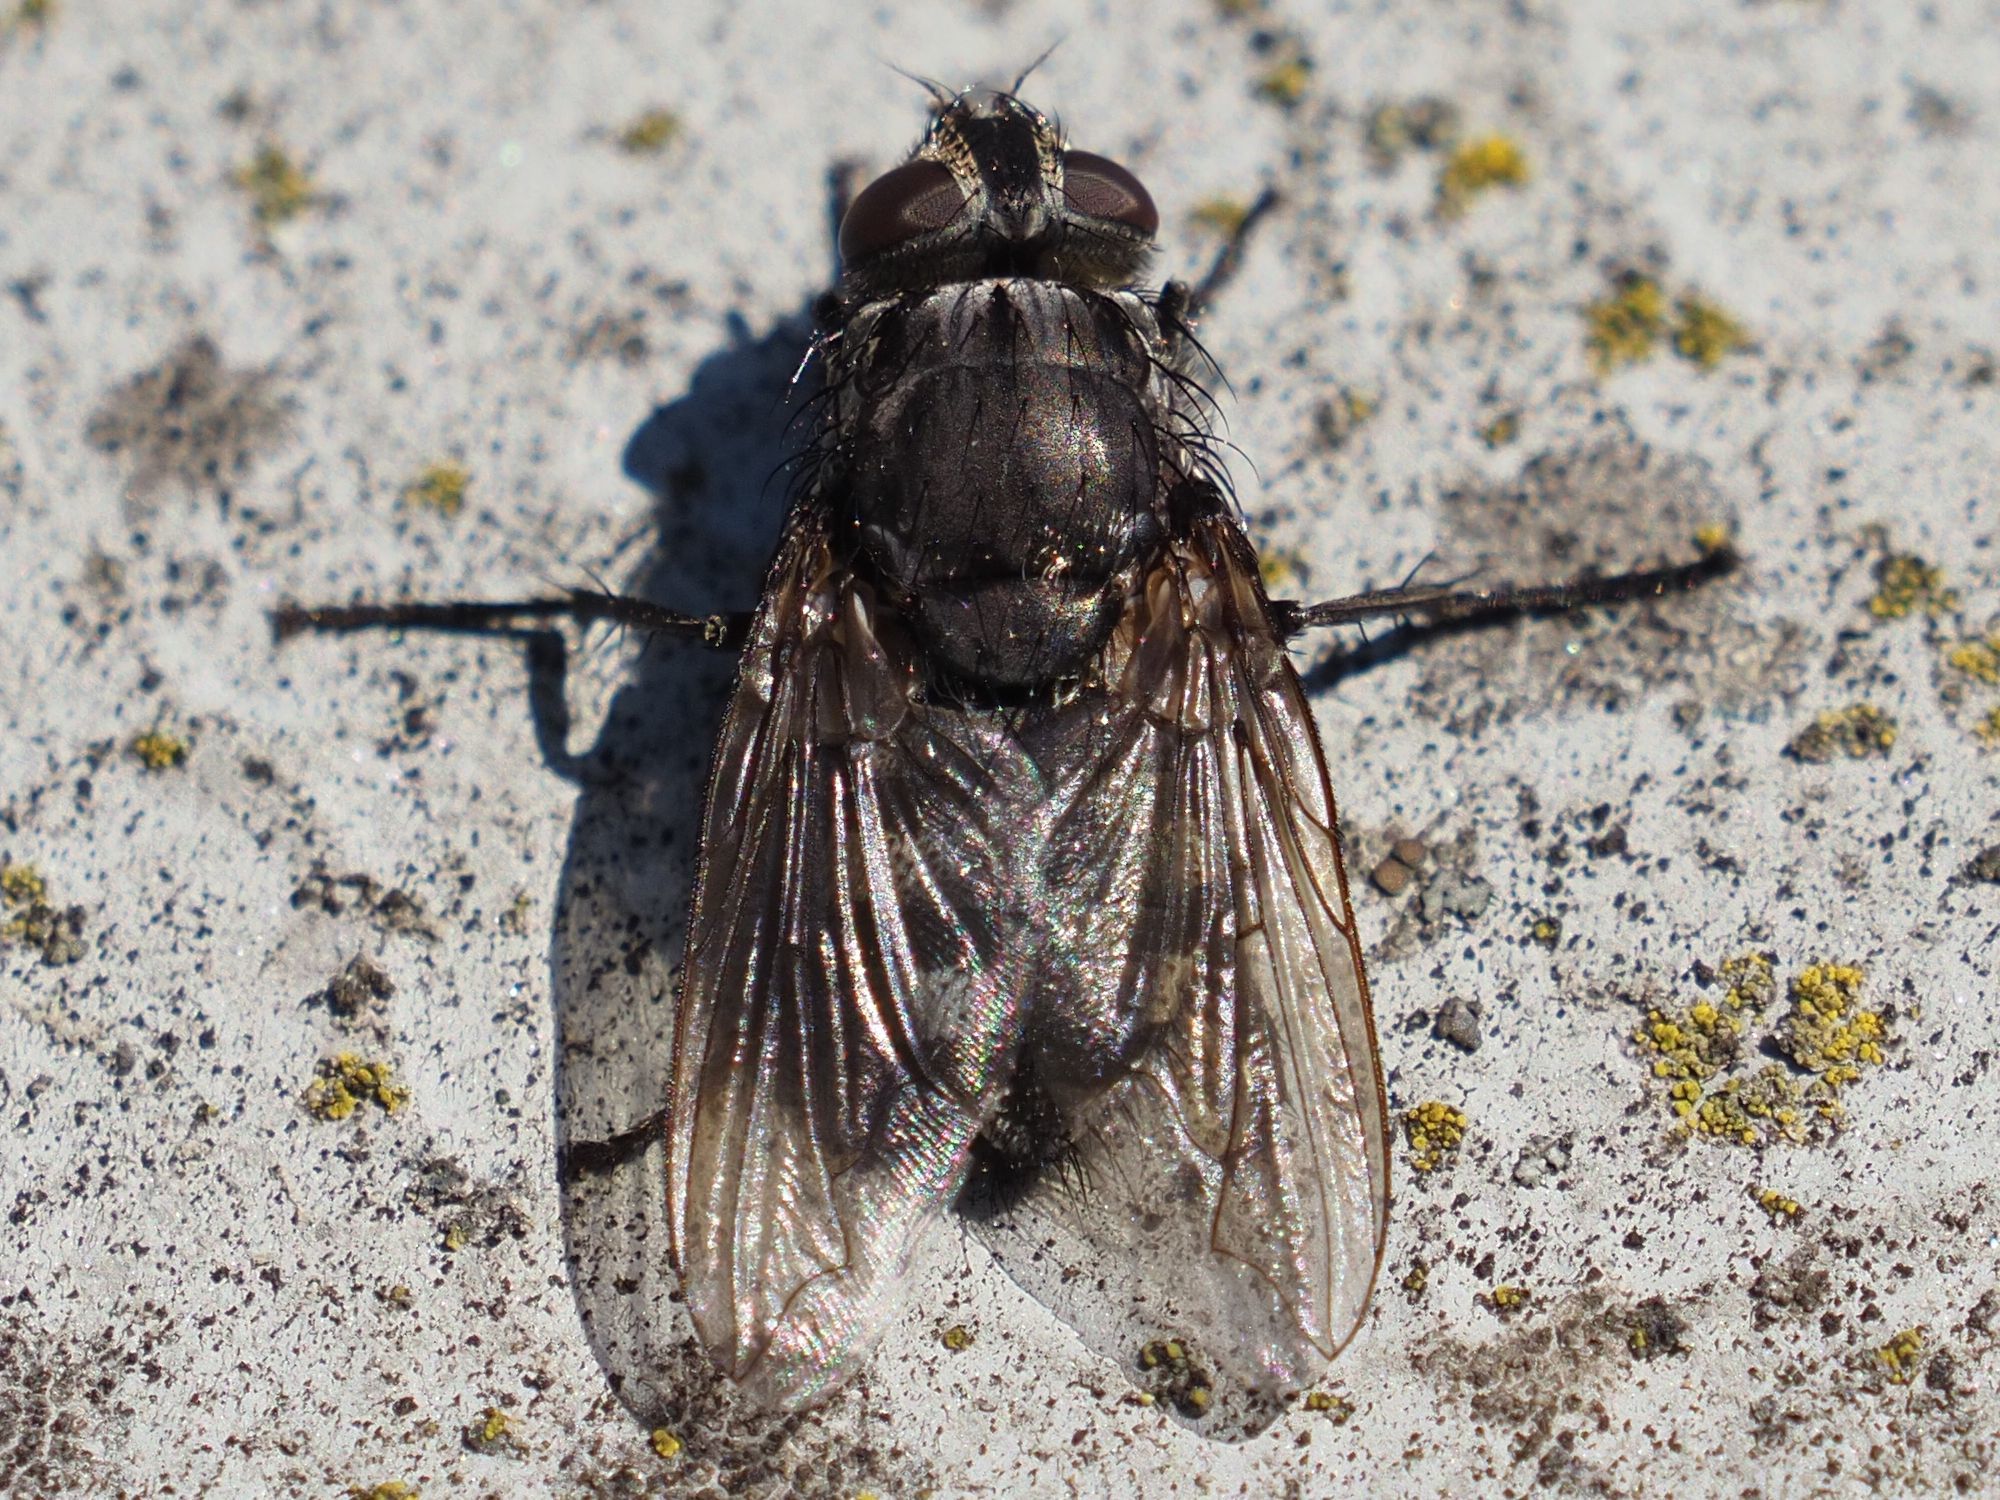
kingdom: Animalia
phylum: Arthropoda
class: Insecta
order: Diptera
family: Polleniidae
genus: Pollenia
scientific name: Pollenia vagabunda
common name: Vagabund cluster fly
